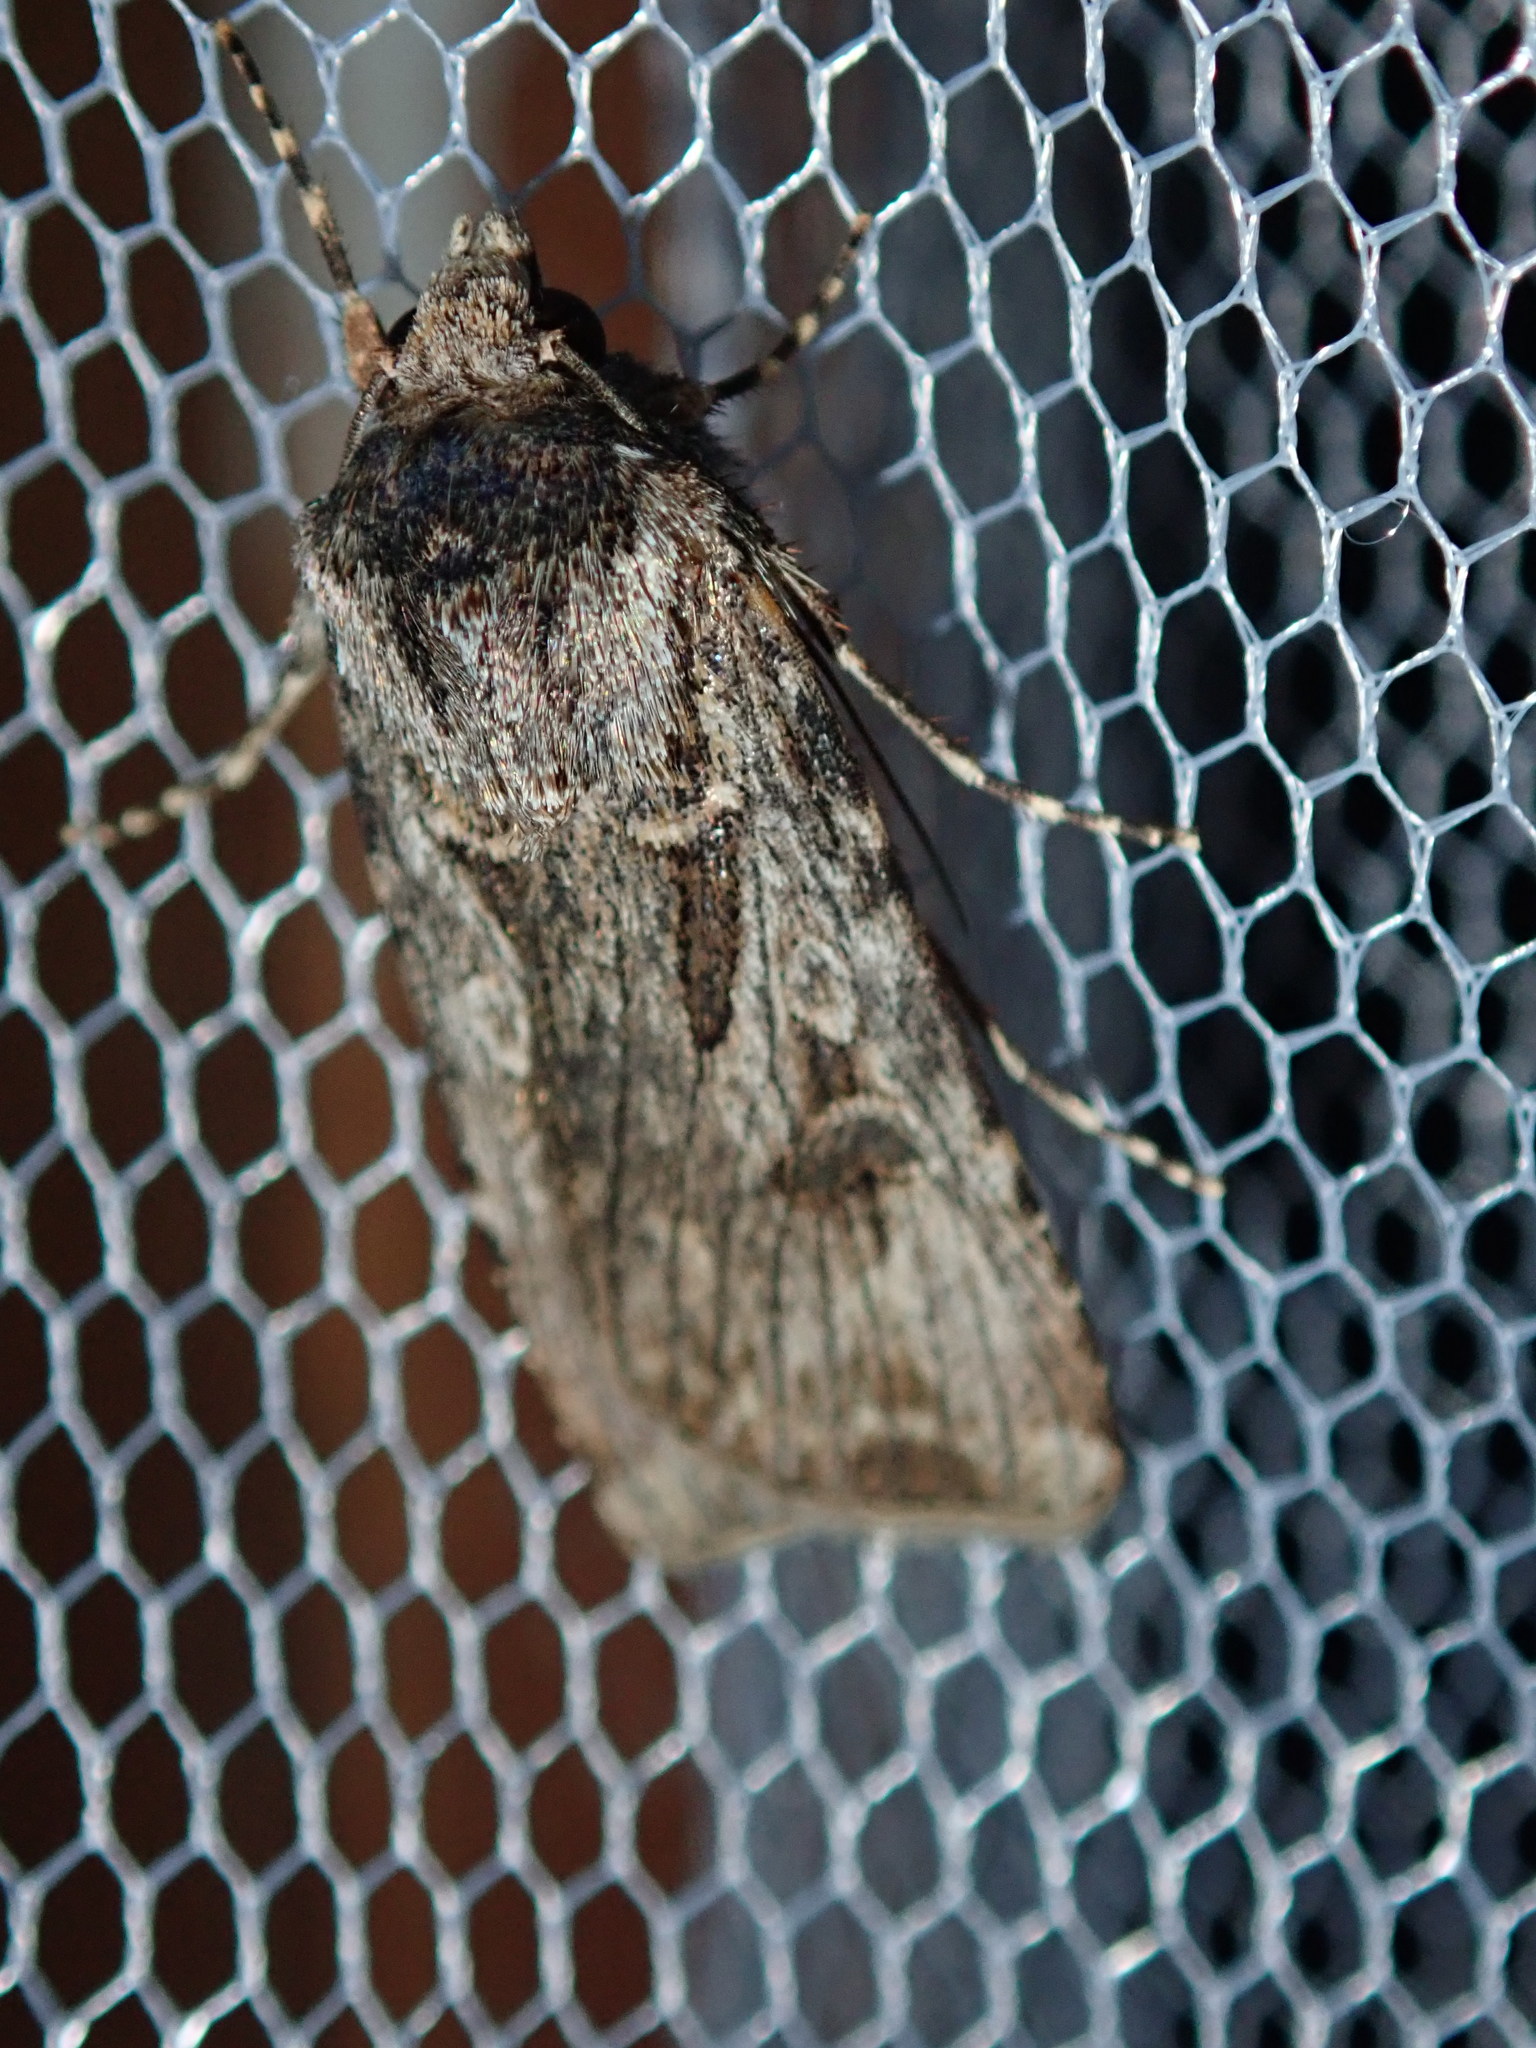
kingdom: Animalia
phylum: Arthropoda
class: Insecta
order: Lepidoptera
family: Noctuidae
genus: Agrotis
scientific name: Agrotis munda
